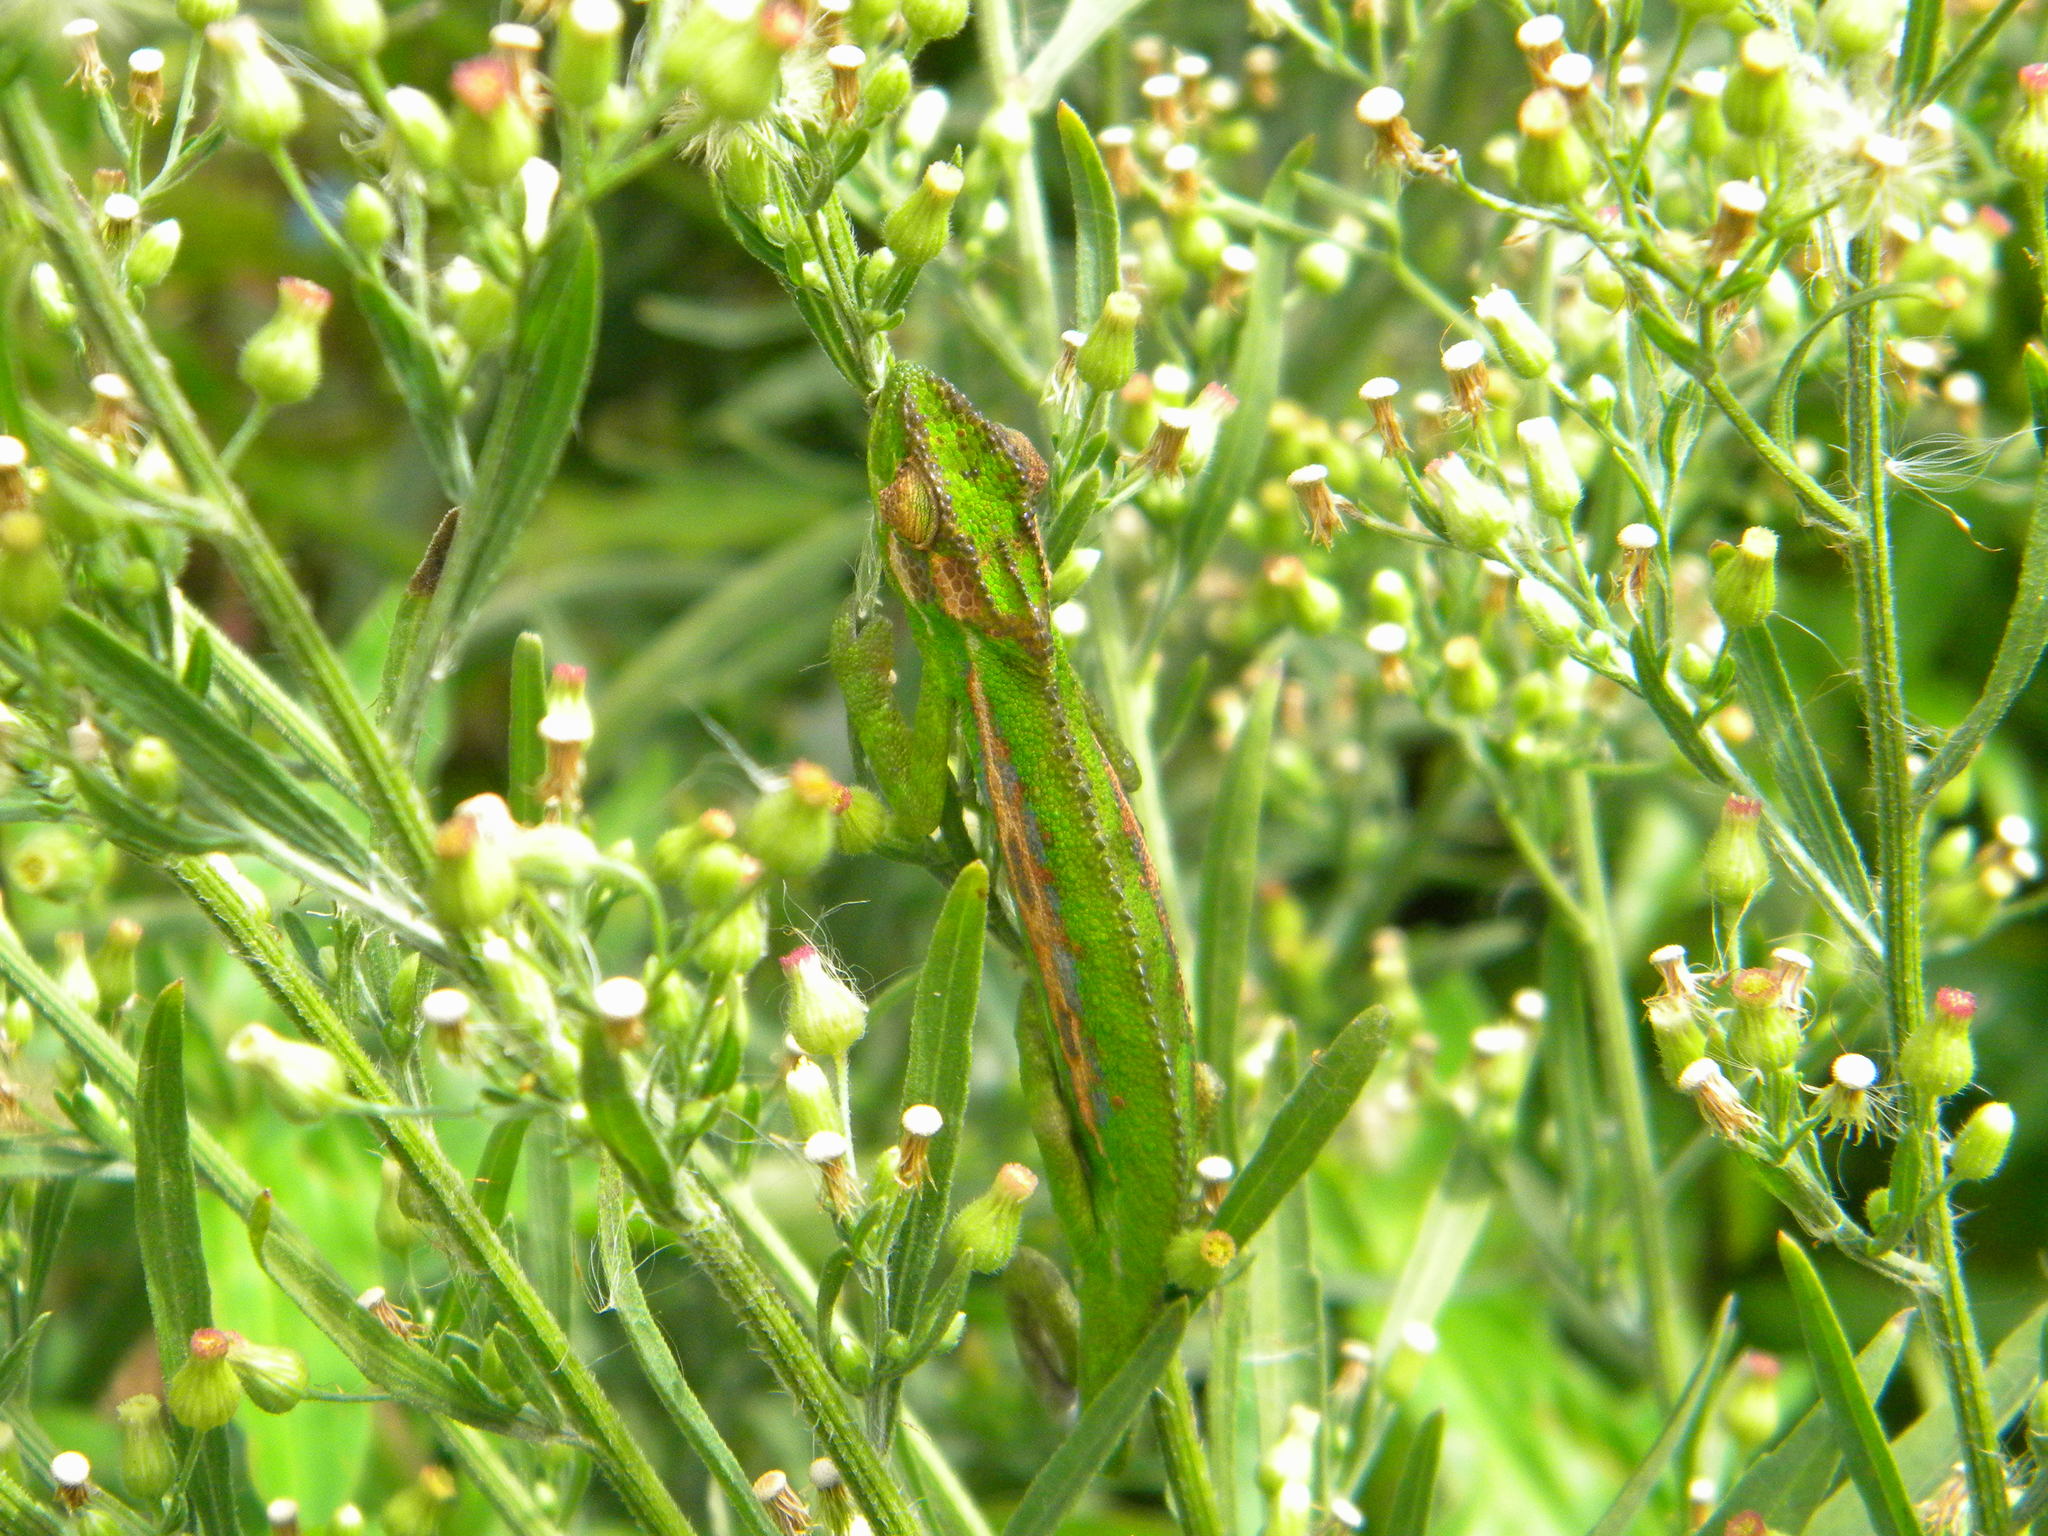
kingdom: Animalia
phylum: Chordata
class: Squamata
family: Chamaeleonidae
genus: Bradypodion
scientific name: Bradypodion pumilum
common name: Cape dwarf chameleon
